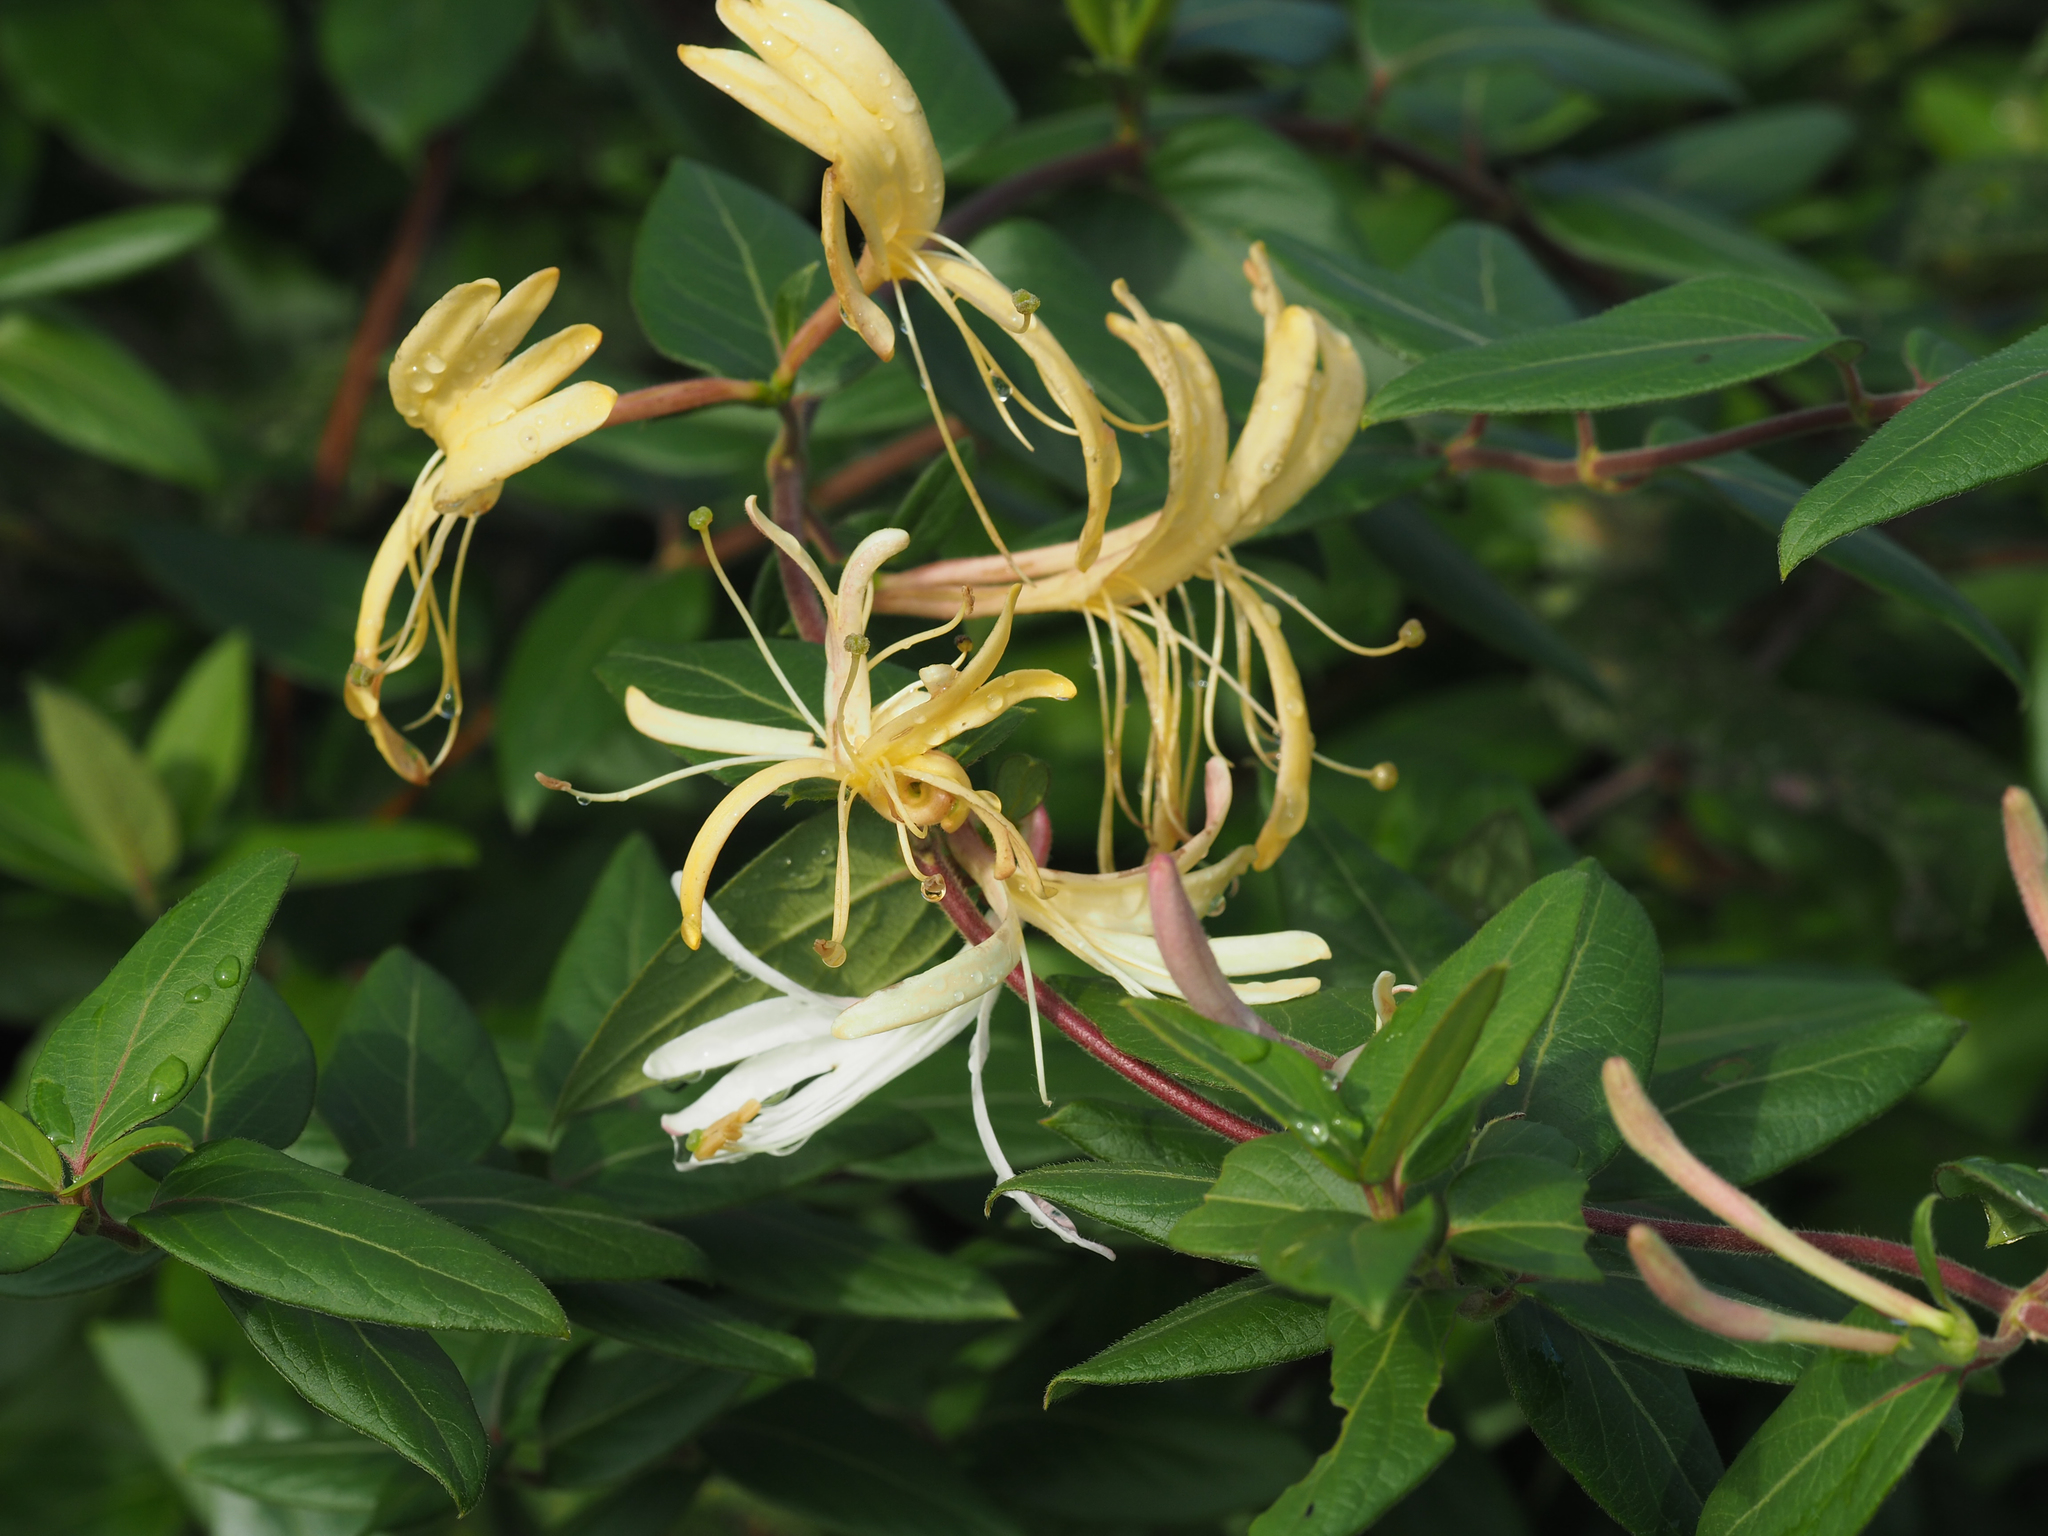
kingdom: Plantae
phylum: Tracheophyta
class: Magnoliopsida
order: Dipsacales
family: Caprifoliaceae
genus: Lonicera
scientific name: Lonicera japonica
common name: Japanese honeysuckle
